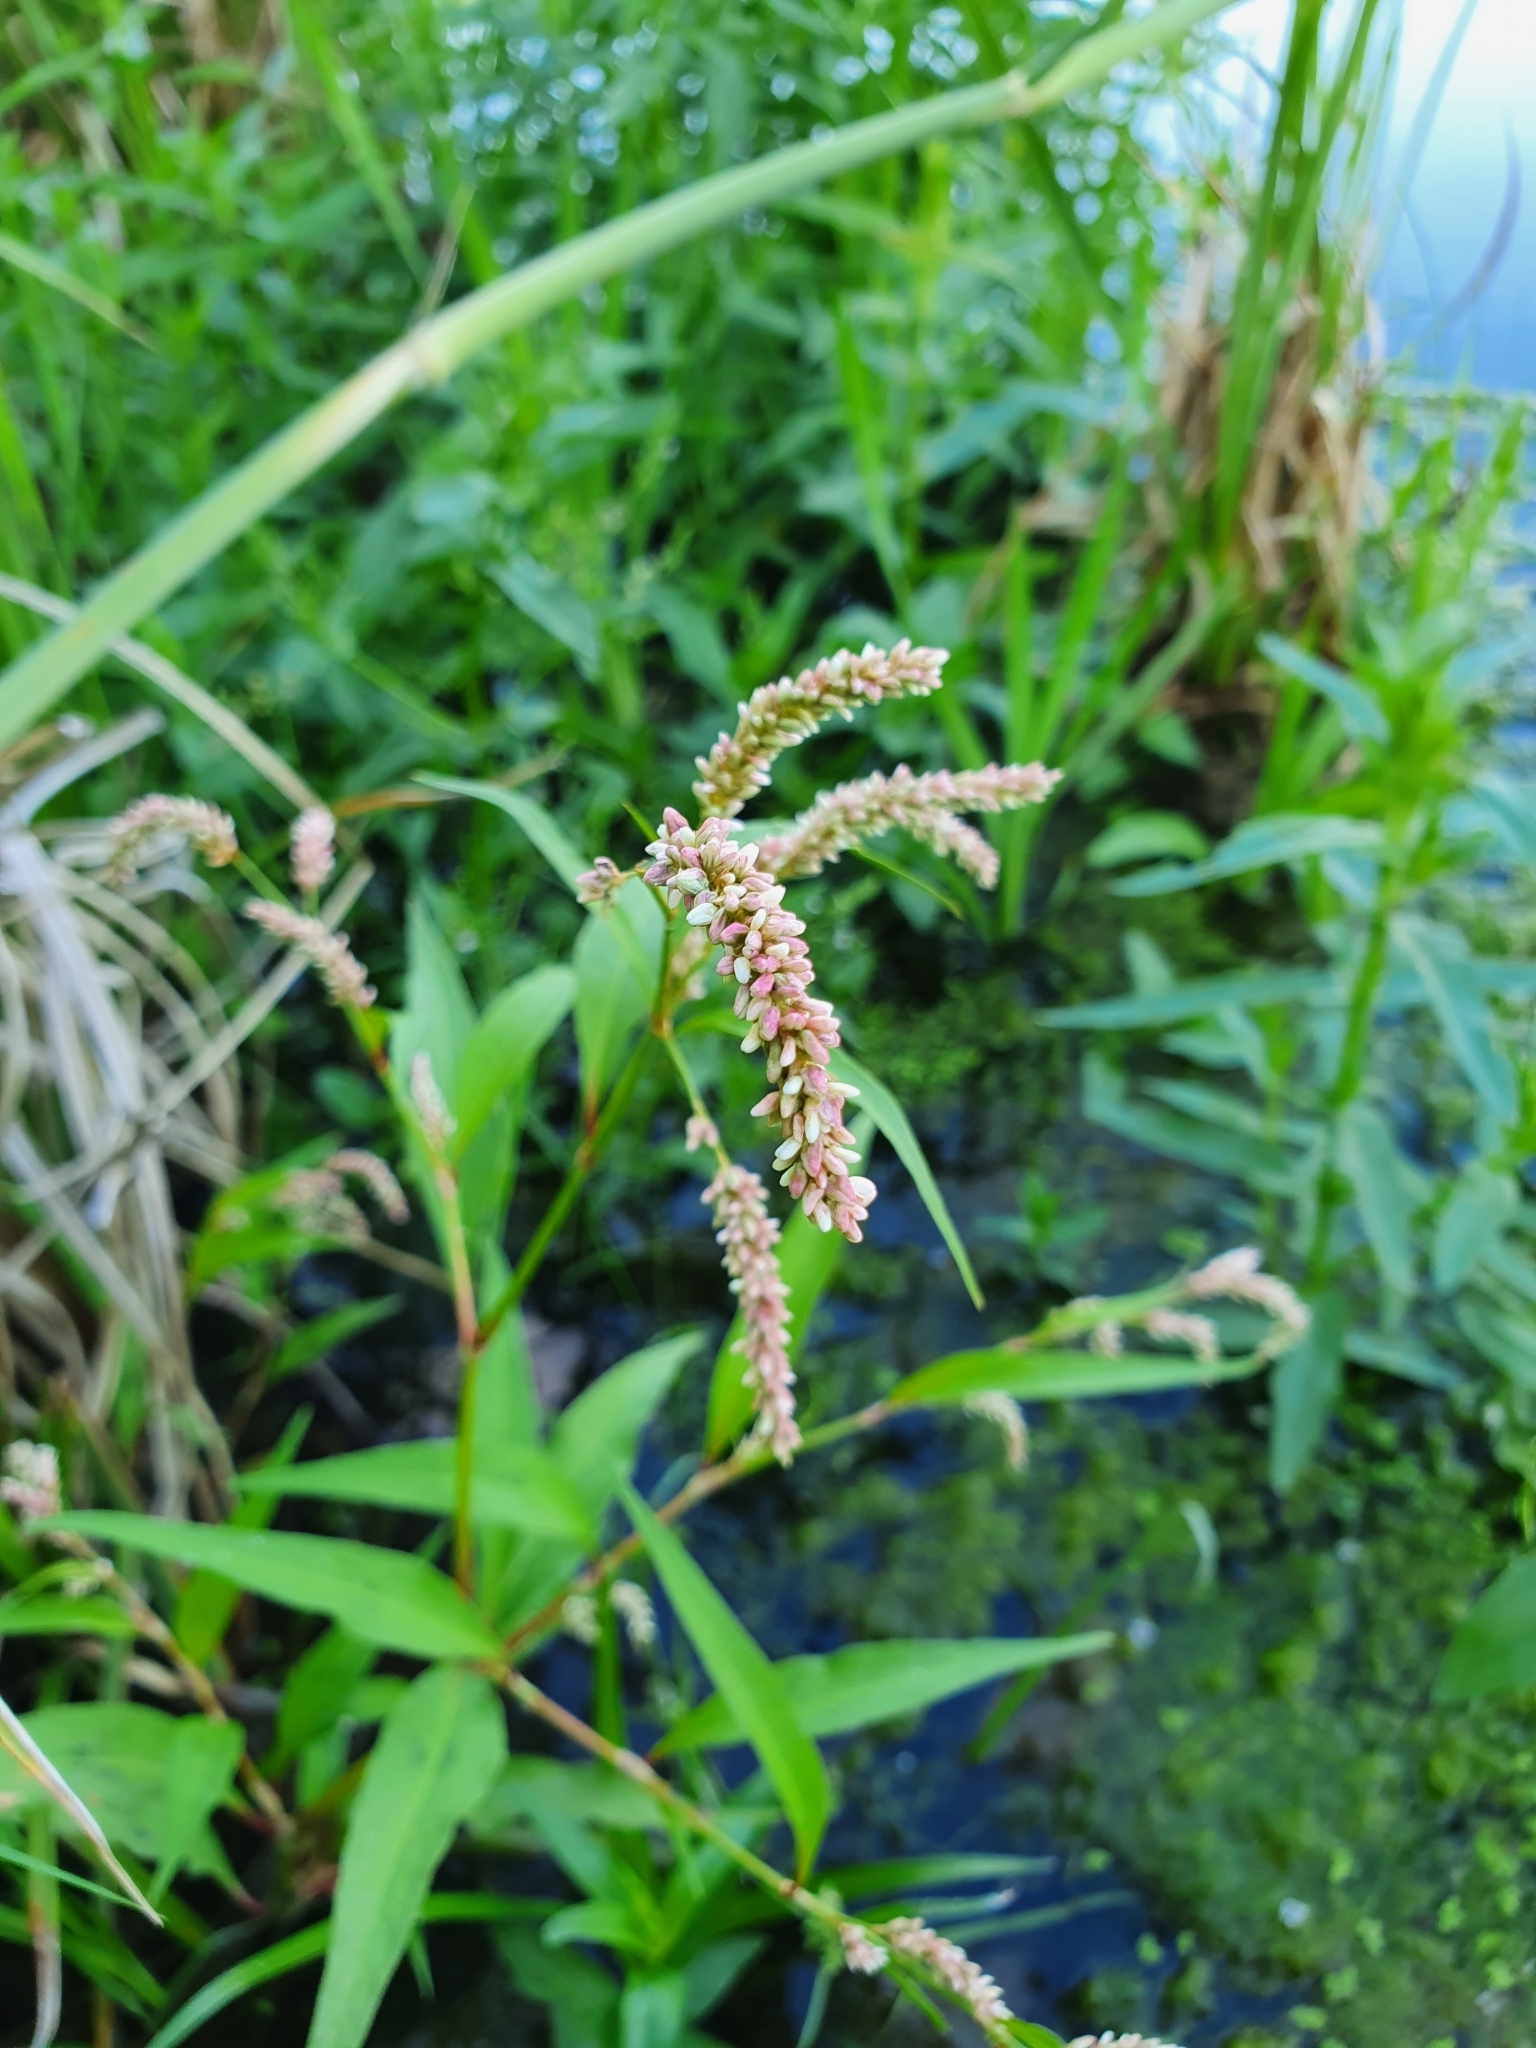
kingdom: Plantae
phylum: Tracheophyta
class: Magnoliopsida
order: Caryophyllales
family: Polygonaceae
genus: Persicaria
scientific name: Persicaria lapathifolia
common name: Curlytop knotweed
